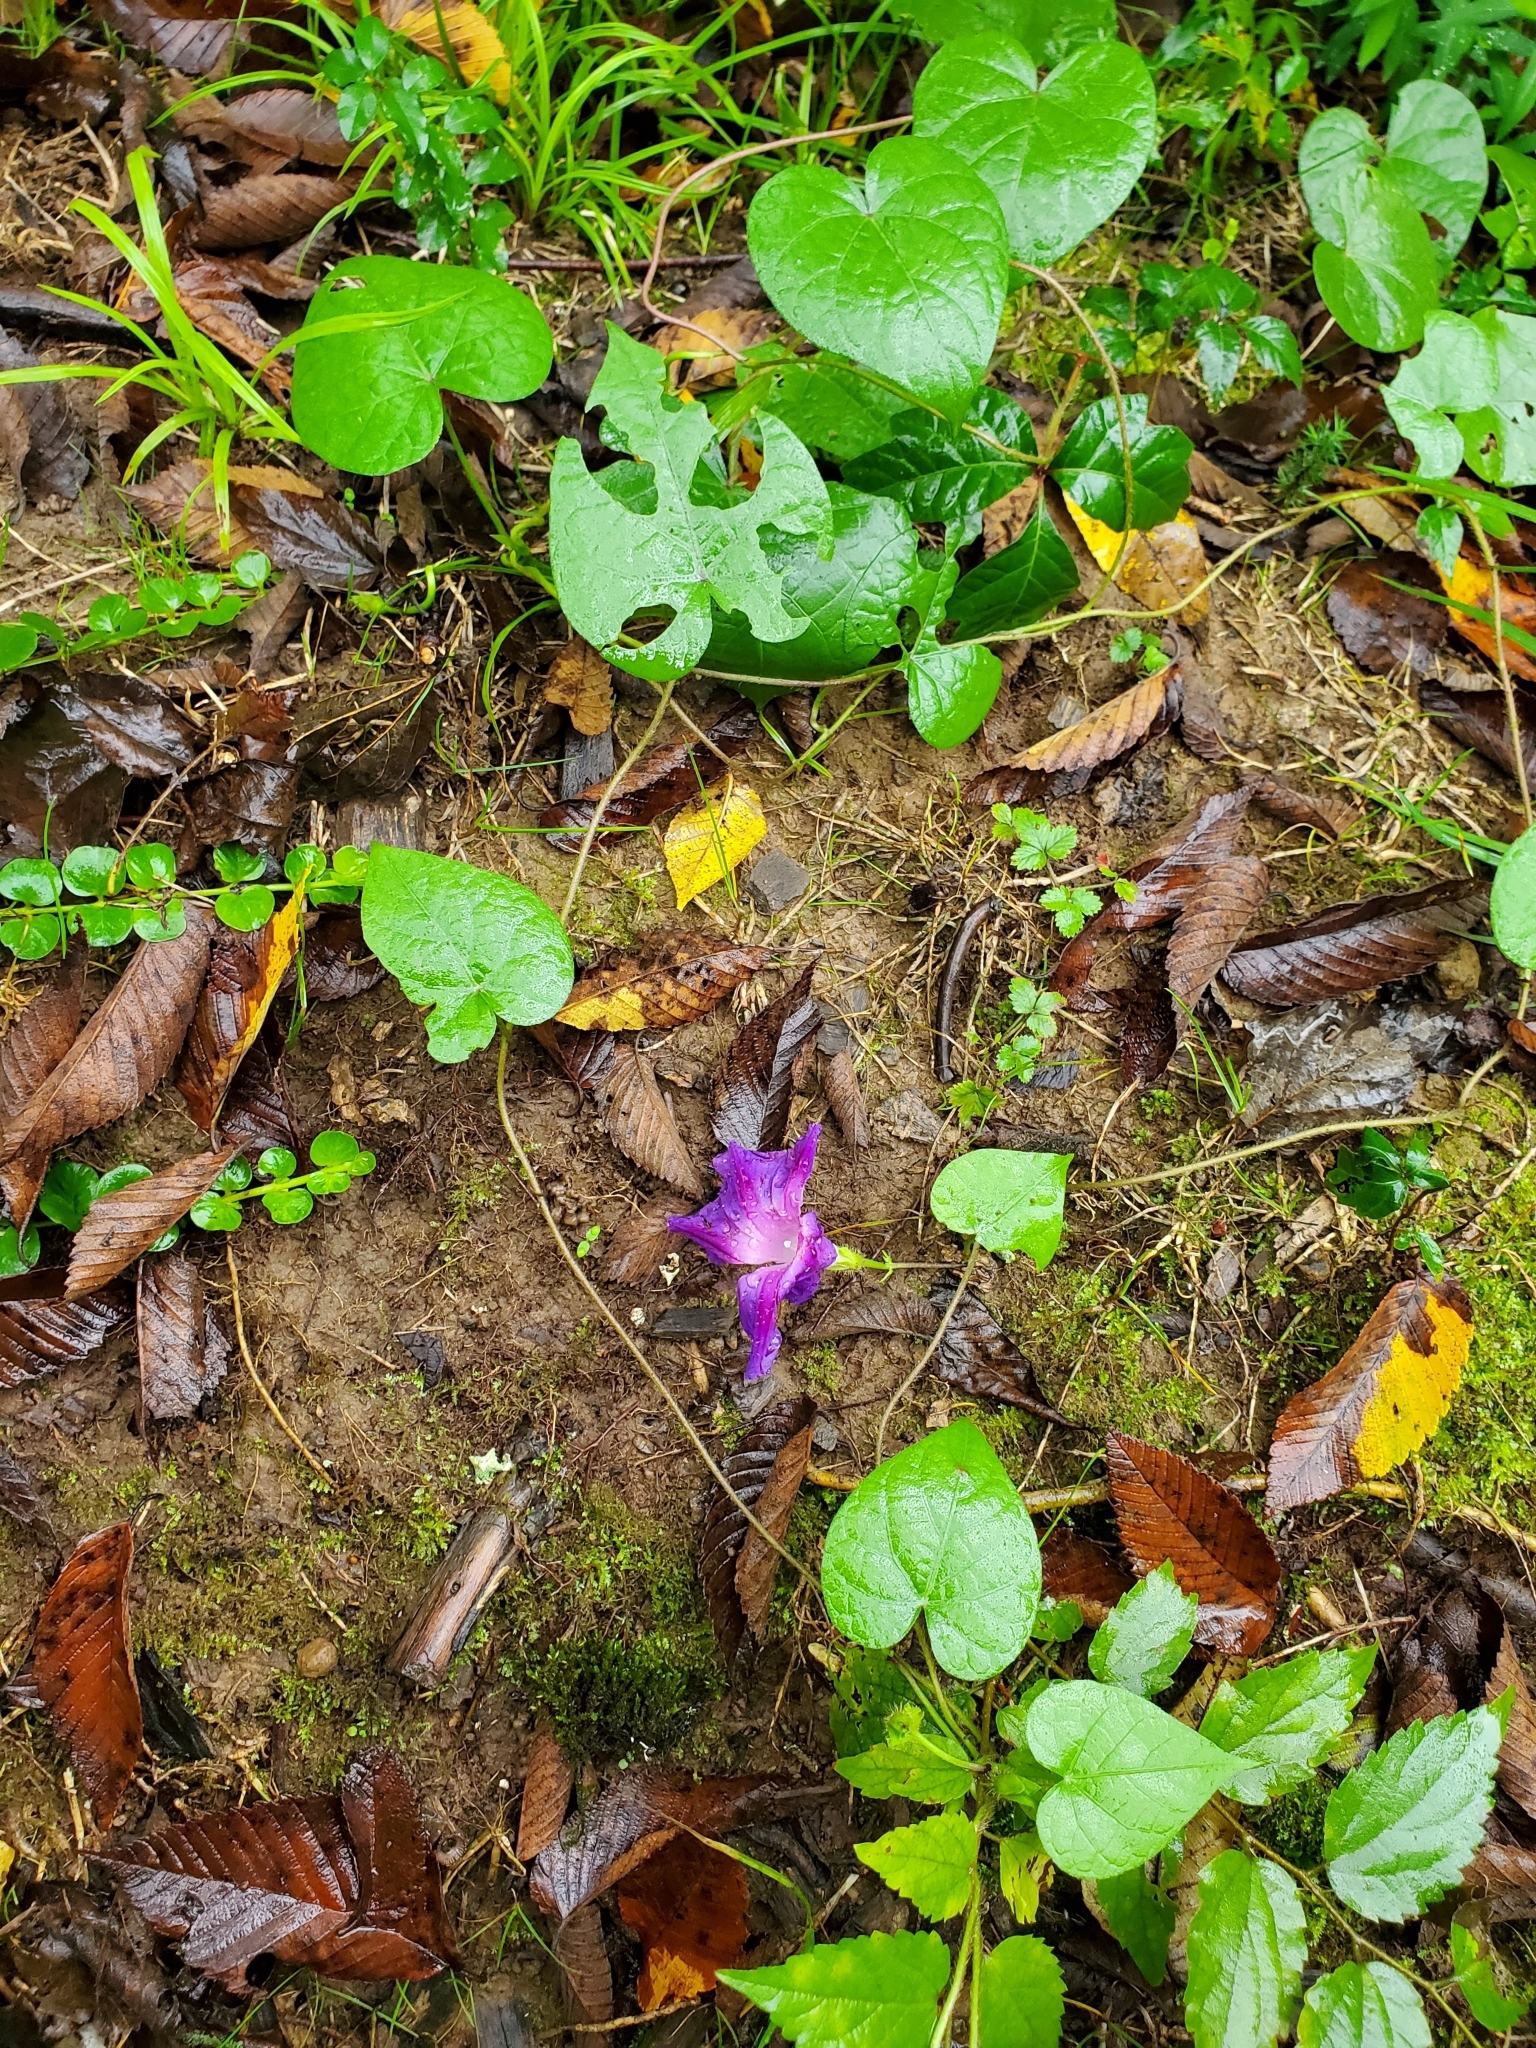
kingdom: Plantae
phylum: Tracheophyta
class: Magnoliopsida
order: Solanales
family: Convolvulaceae
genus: Ipomoea
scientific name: Ipomoea purpurea
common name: Common morning-glory
